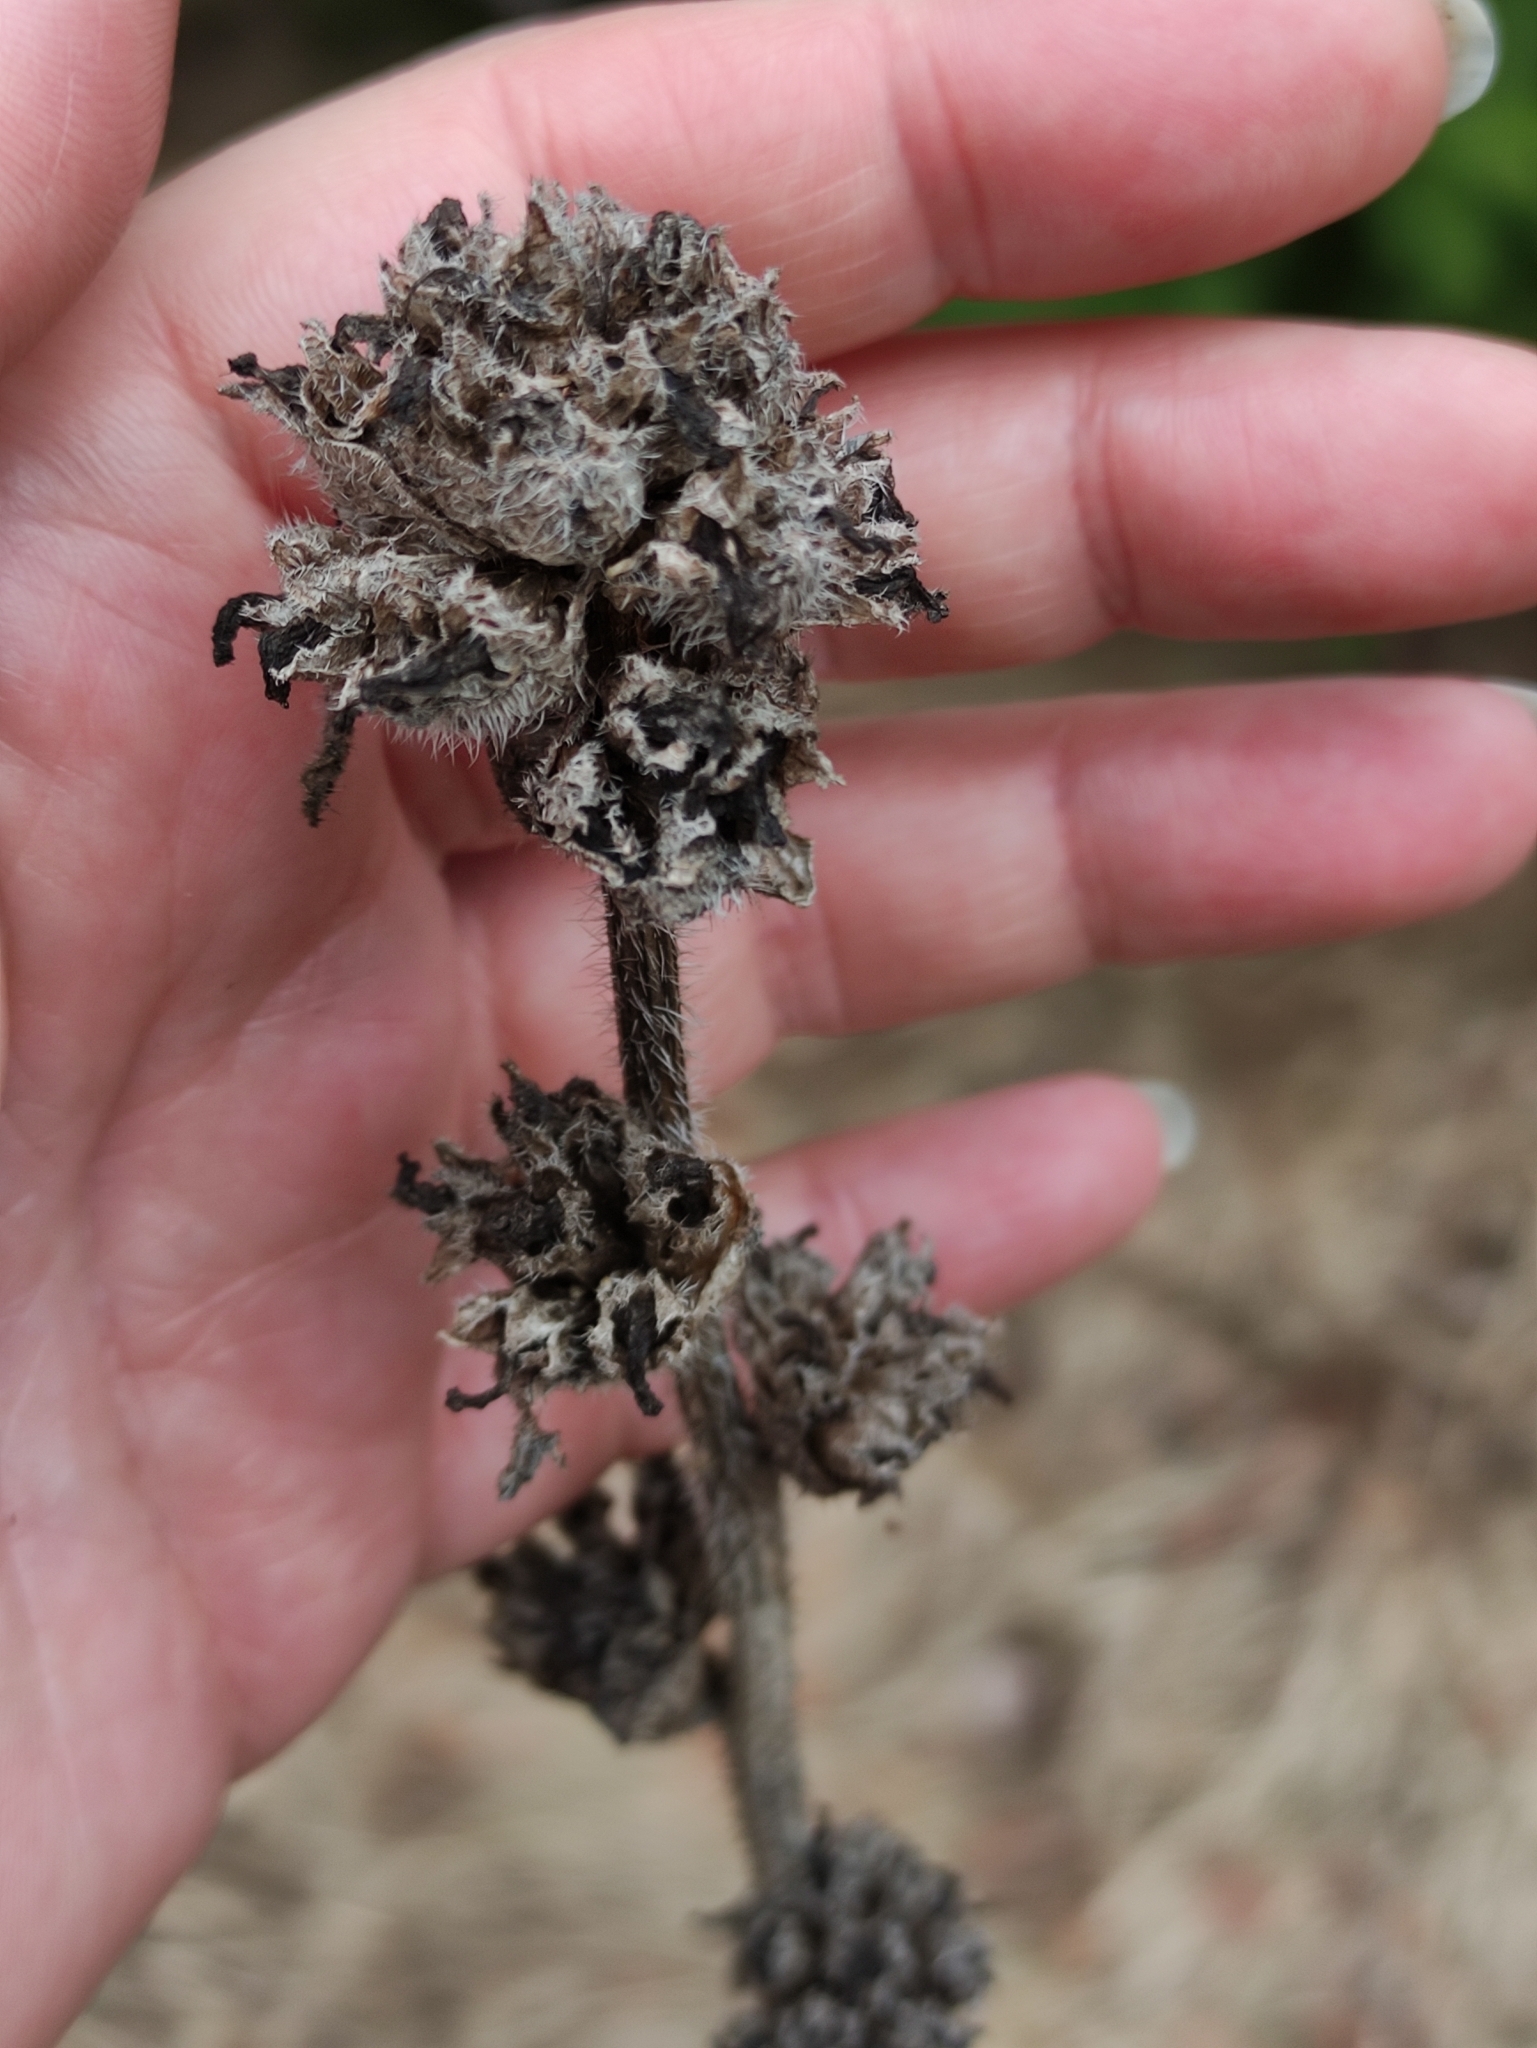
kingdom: Plantae
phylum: Tracheophyta
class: Magnoliopsida
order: Asterales
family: Campanulaceae
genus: Campanula
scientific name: Campanula cervicaria
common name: Bristly bellflower
